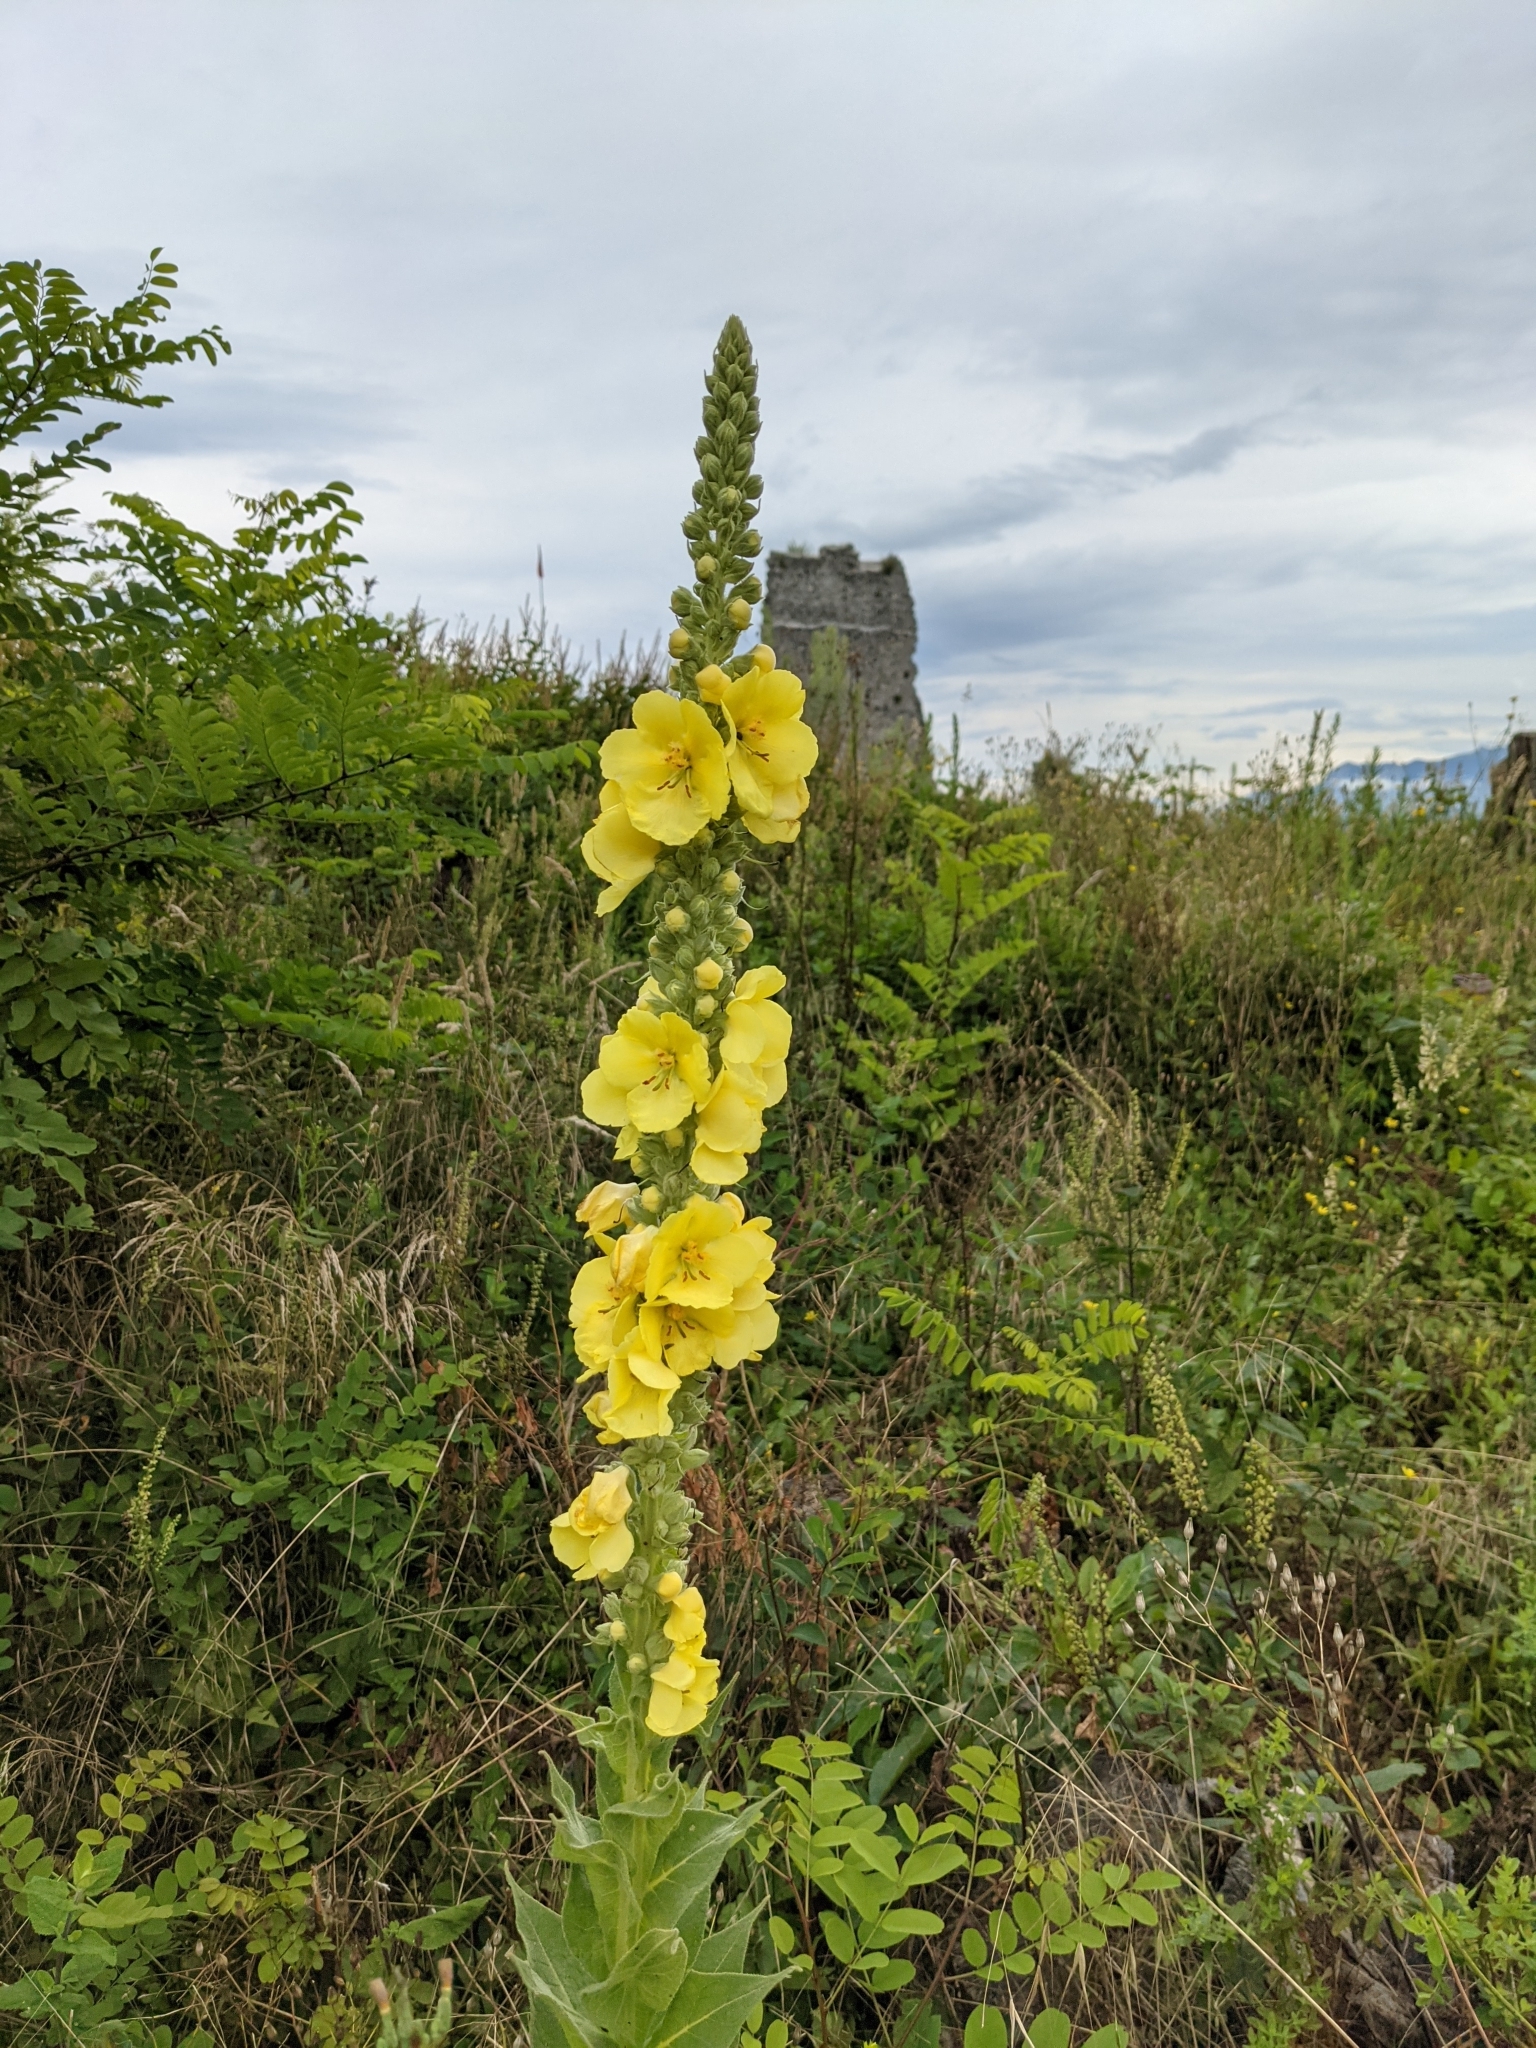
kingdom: Plantae
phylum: Tracheophyta
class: Magnoliopsida
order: Lamiales
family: Scrophulariaceae
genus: Verbascum
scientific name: Verbascum densiflorum
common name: Dense-flowered mullein
